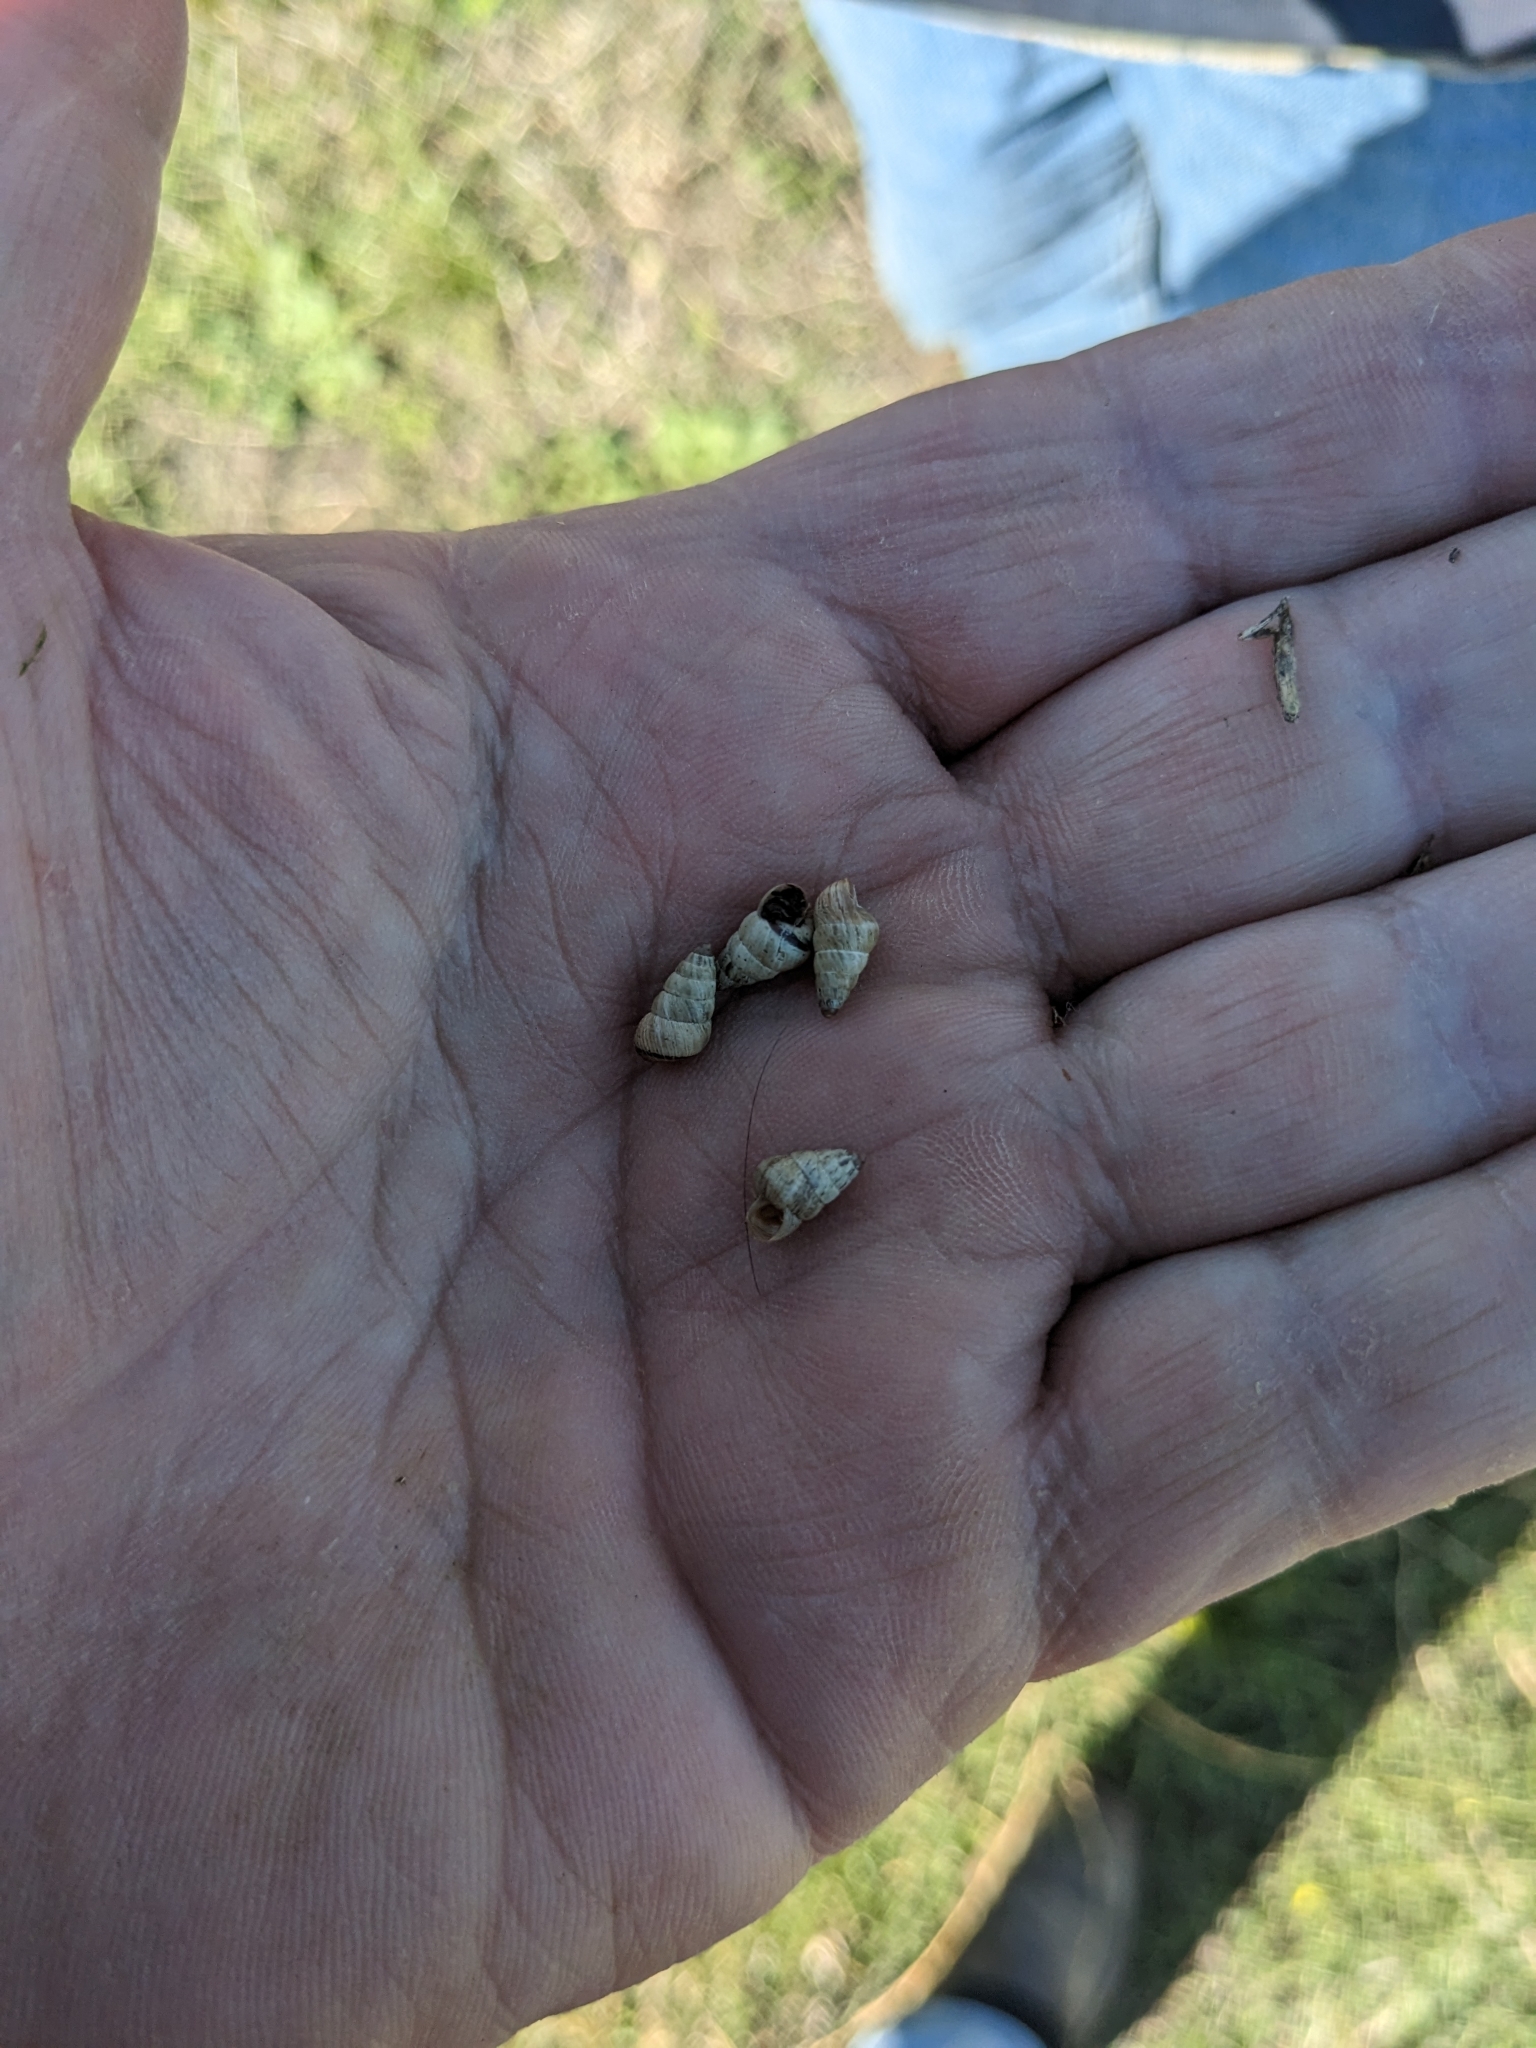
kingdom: Animalia
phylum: Mollusca
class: Gastropoda
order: Stylommatophora
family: Geomitridae
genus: Cochlicella
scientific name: Cochlicella barbara
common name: Potbellied helicellid
